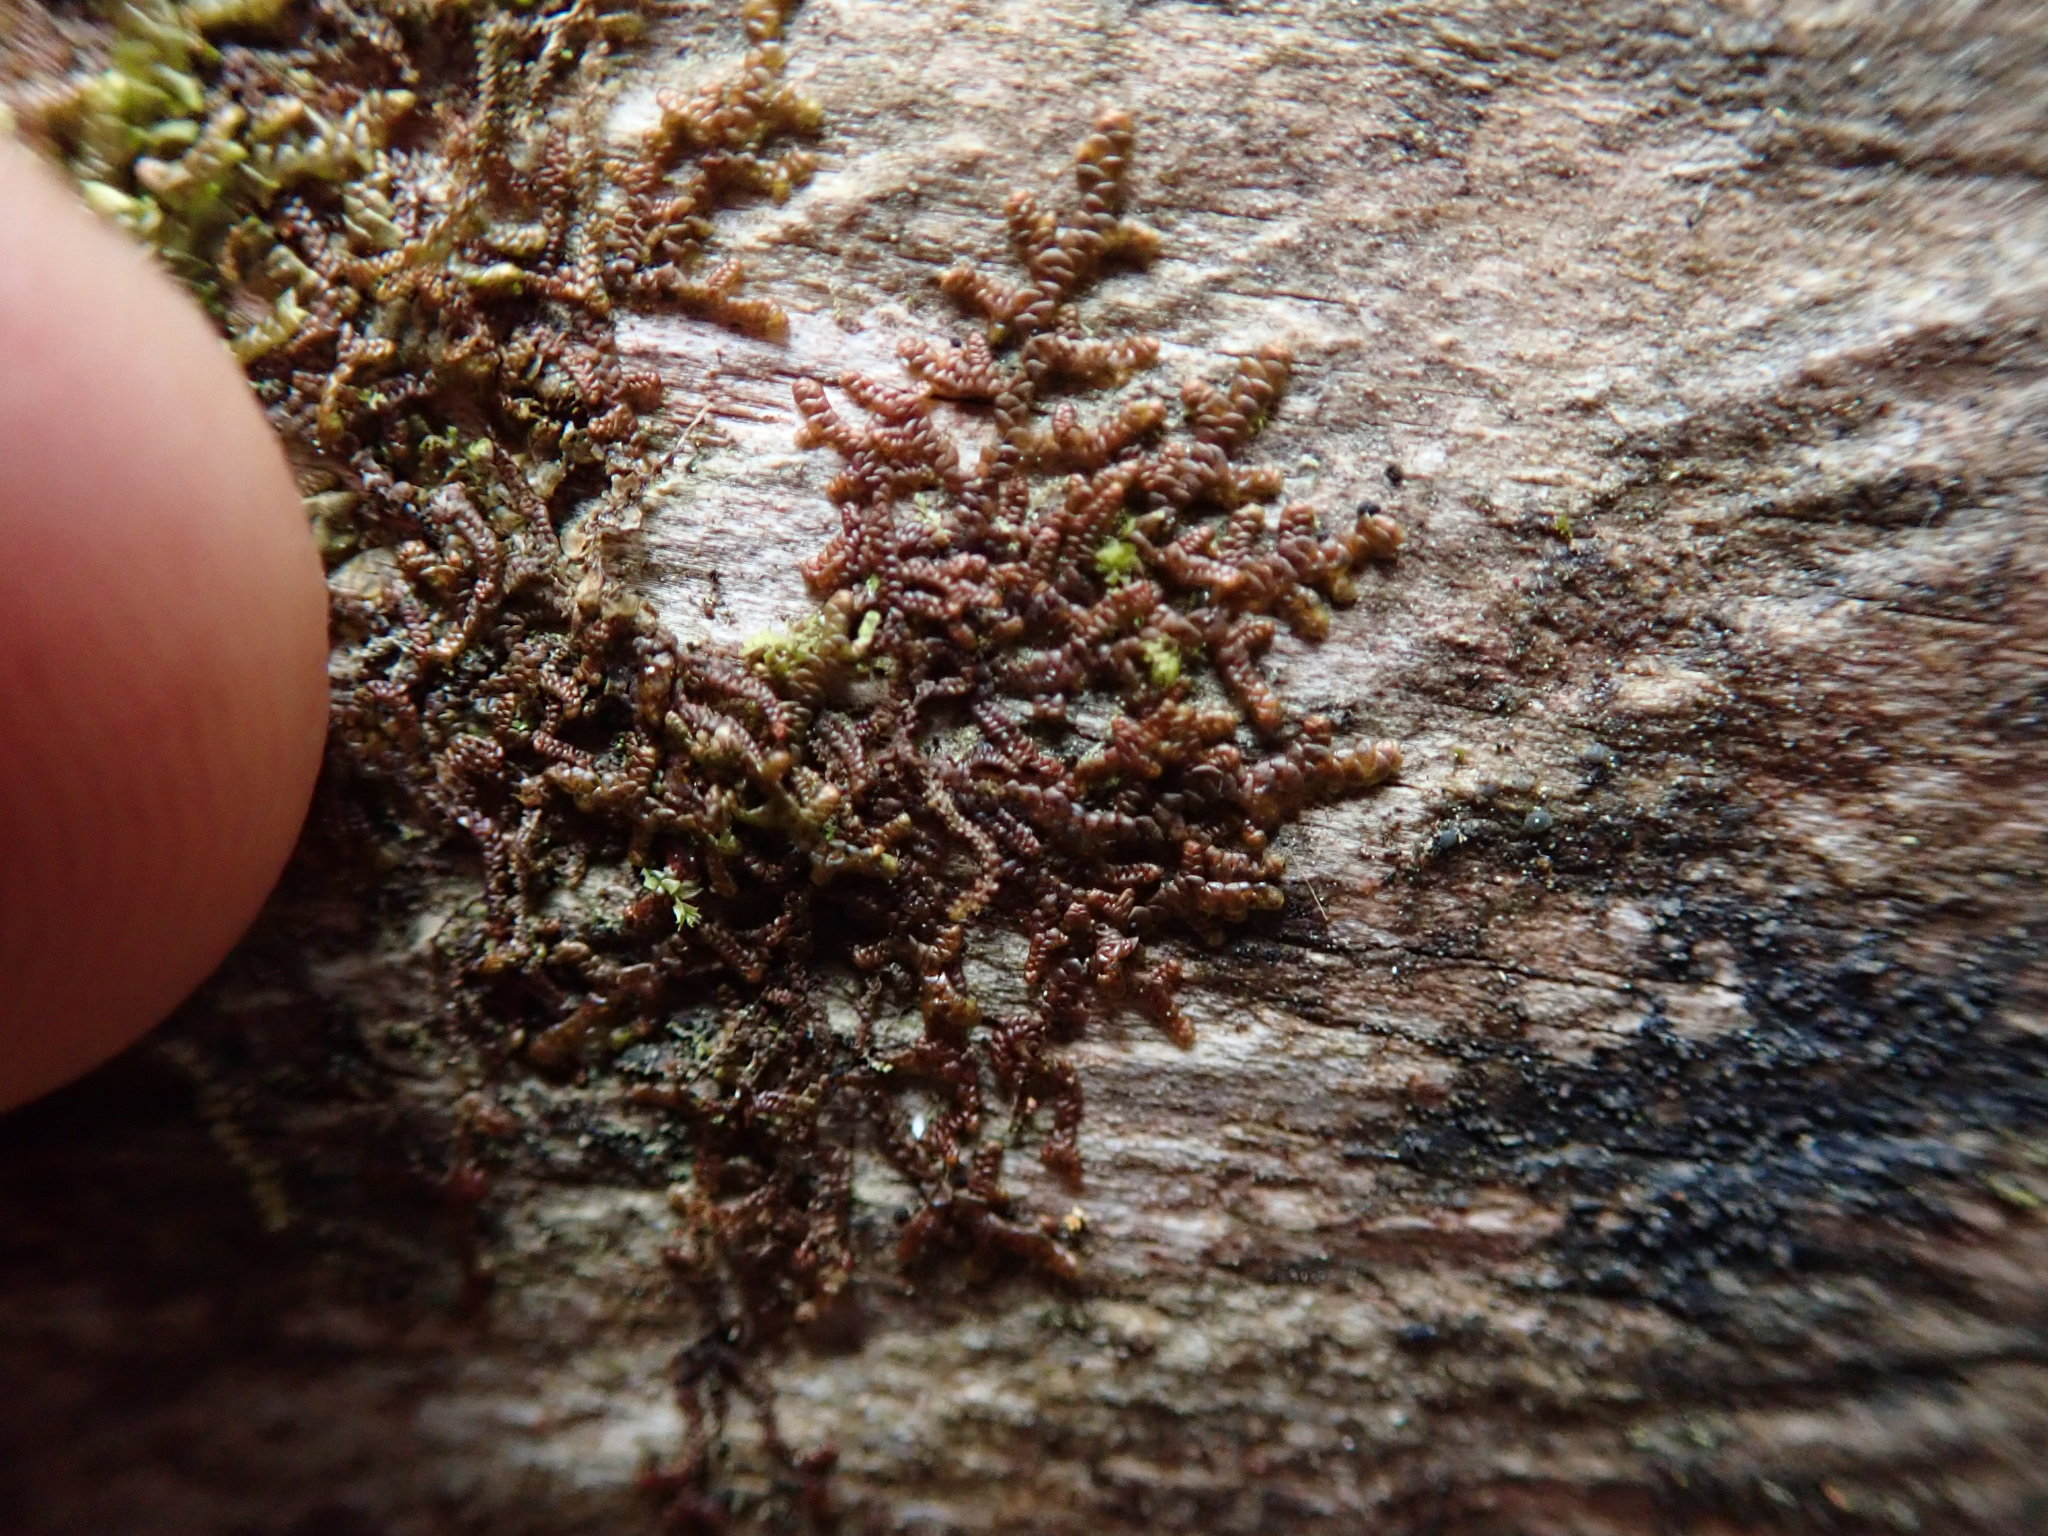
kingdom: Plantae
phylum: Marchantiophyta
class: Jungermanniopsida
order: Porellales
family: Frullaniaceae
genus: Frullania
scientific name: Frullania nisquallensis
